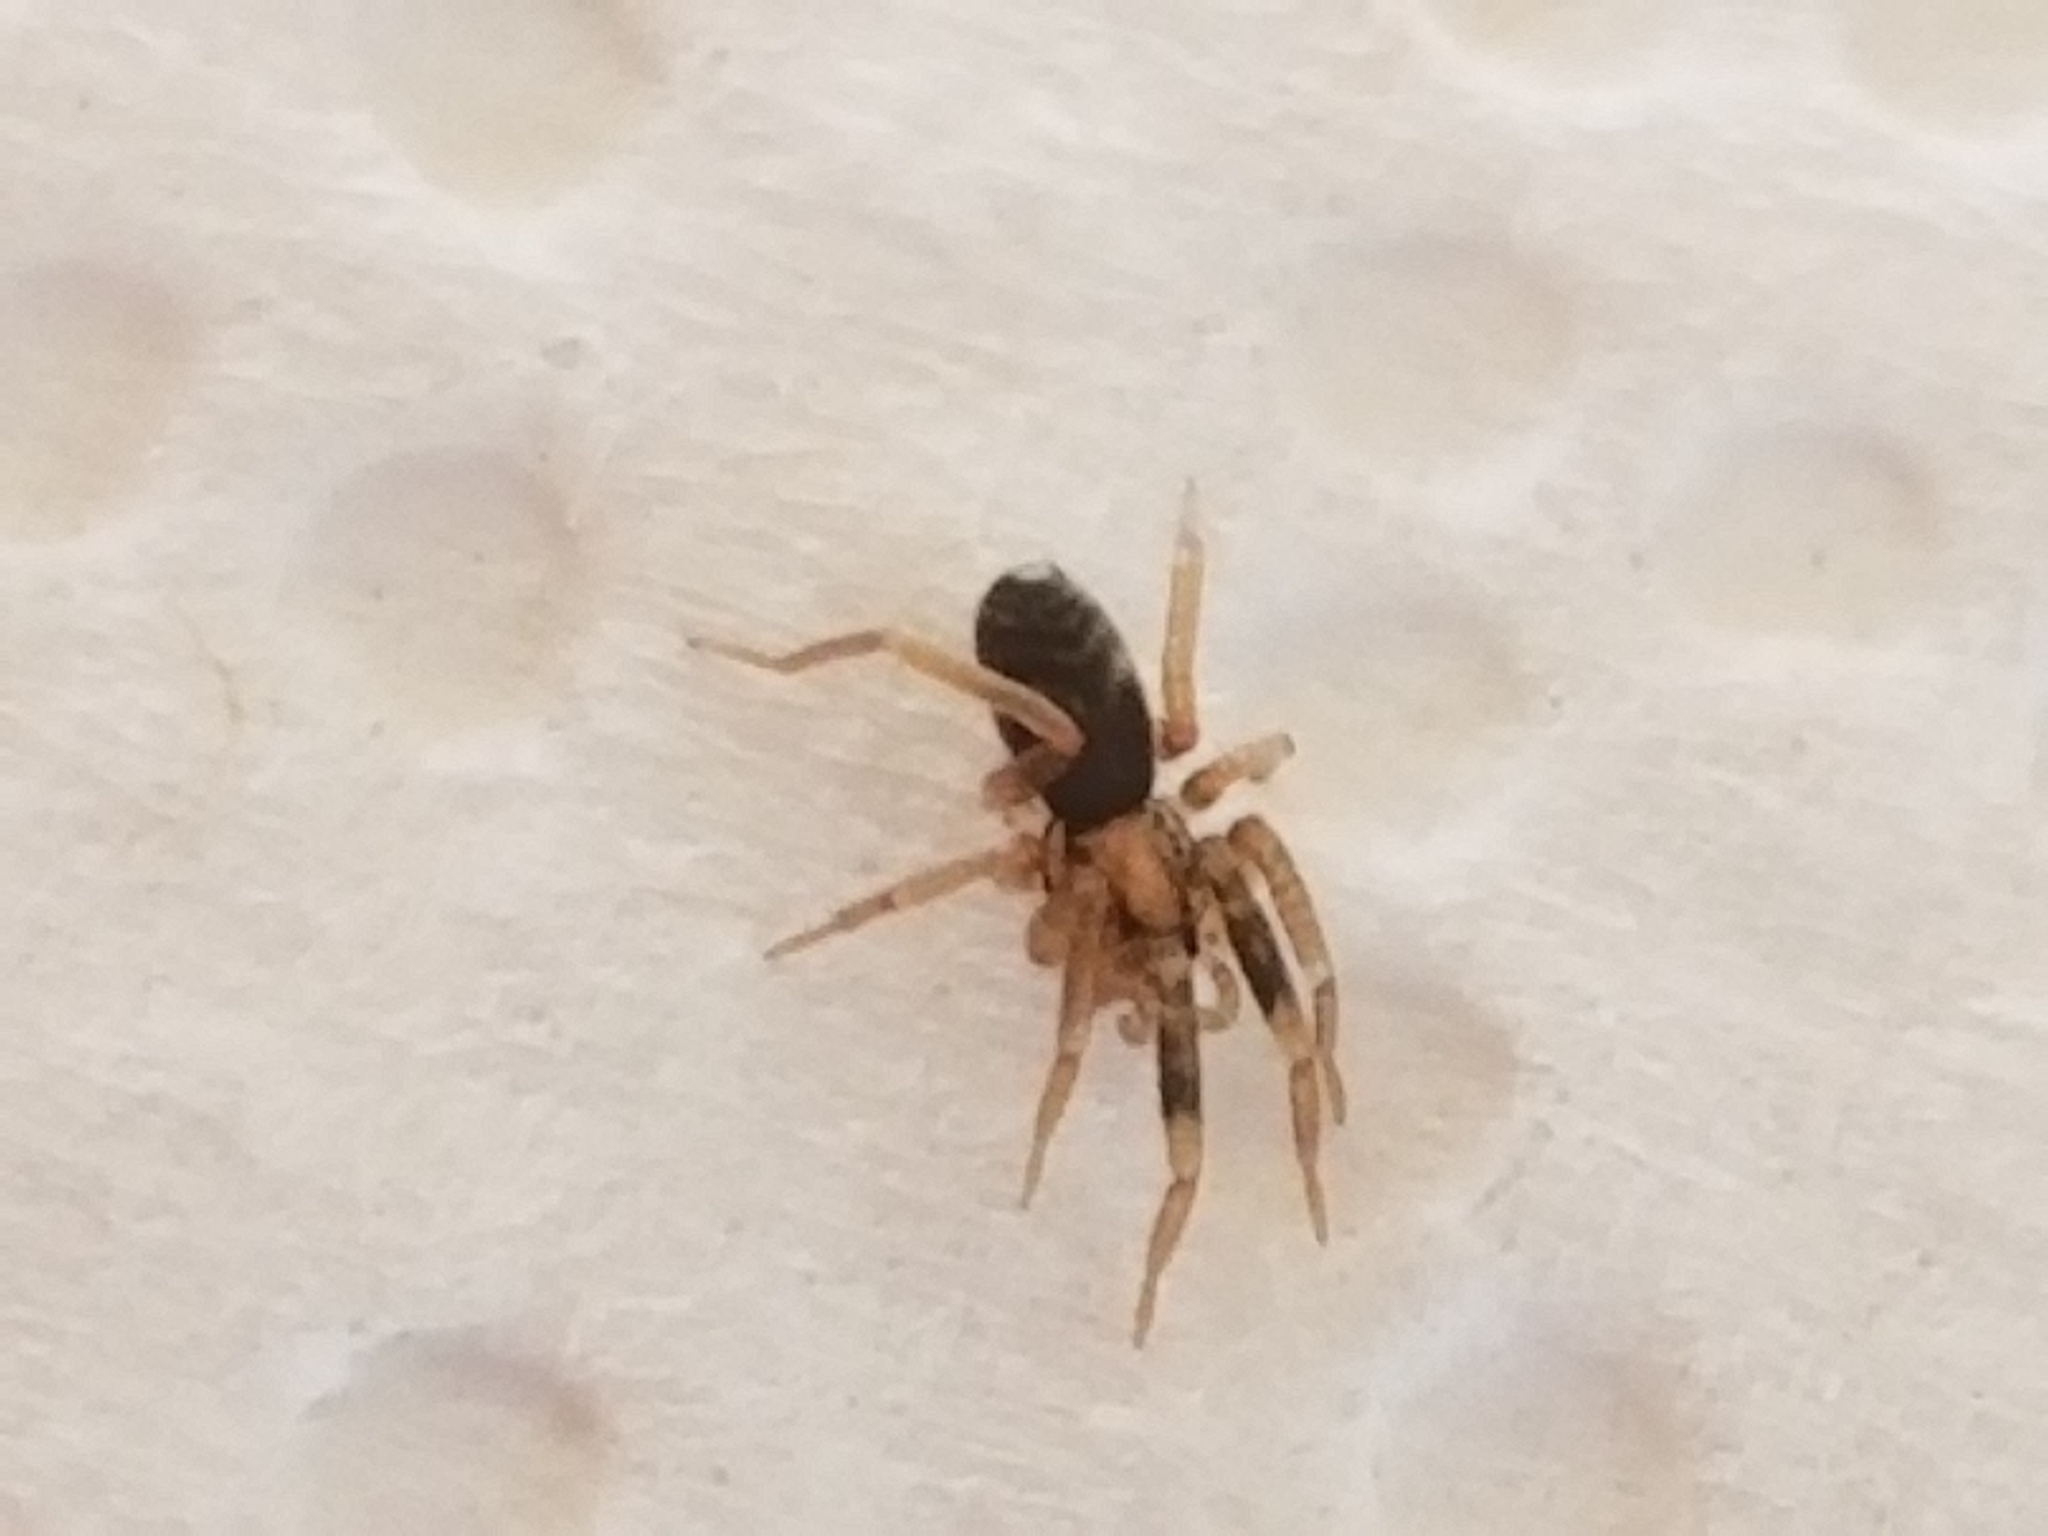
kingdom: Animalia
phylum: Arthropoda
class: Arachnida
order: Araneae
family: Phrurolithidae
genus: Phrurotimpus
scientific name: Phrurotimpus
